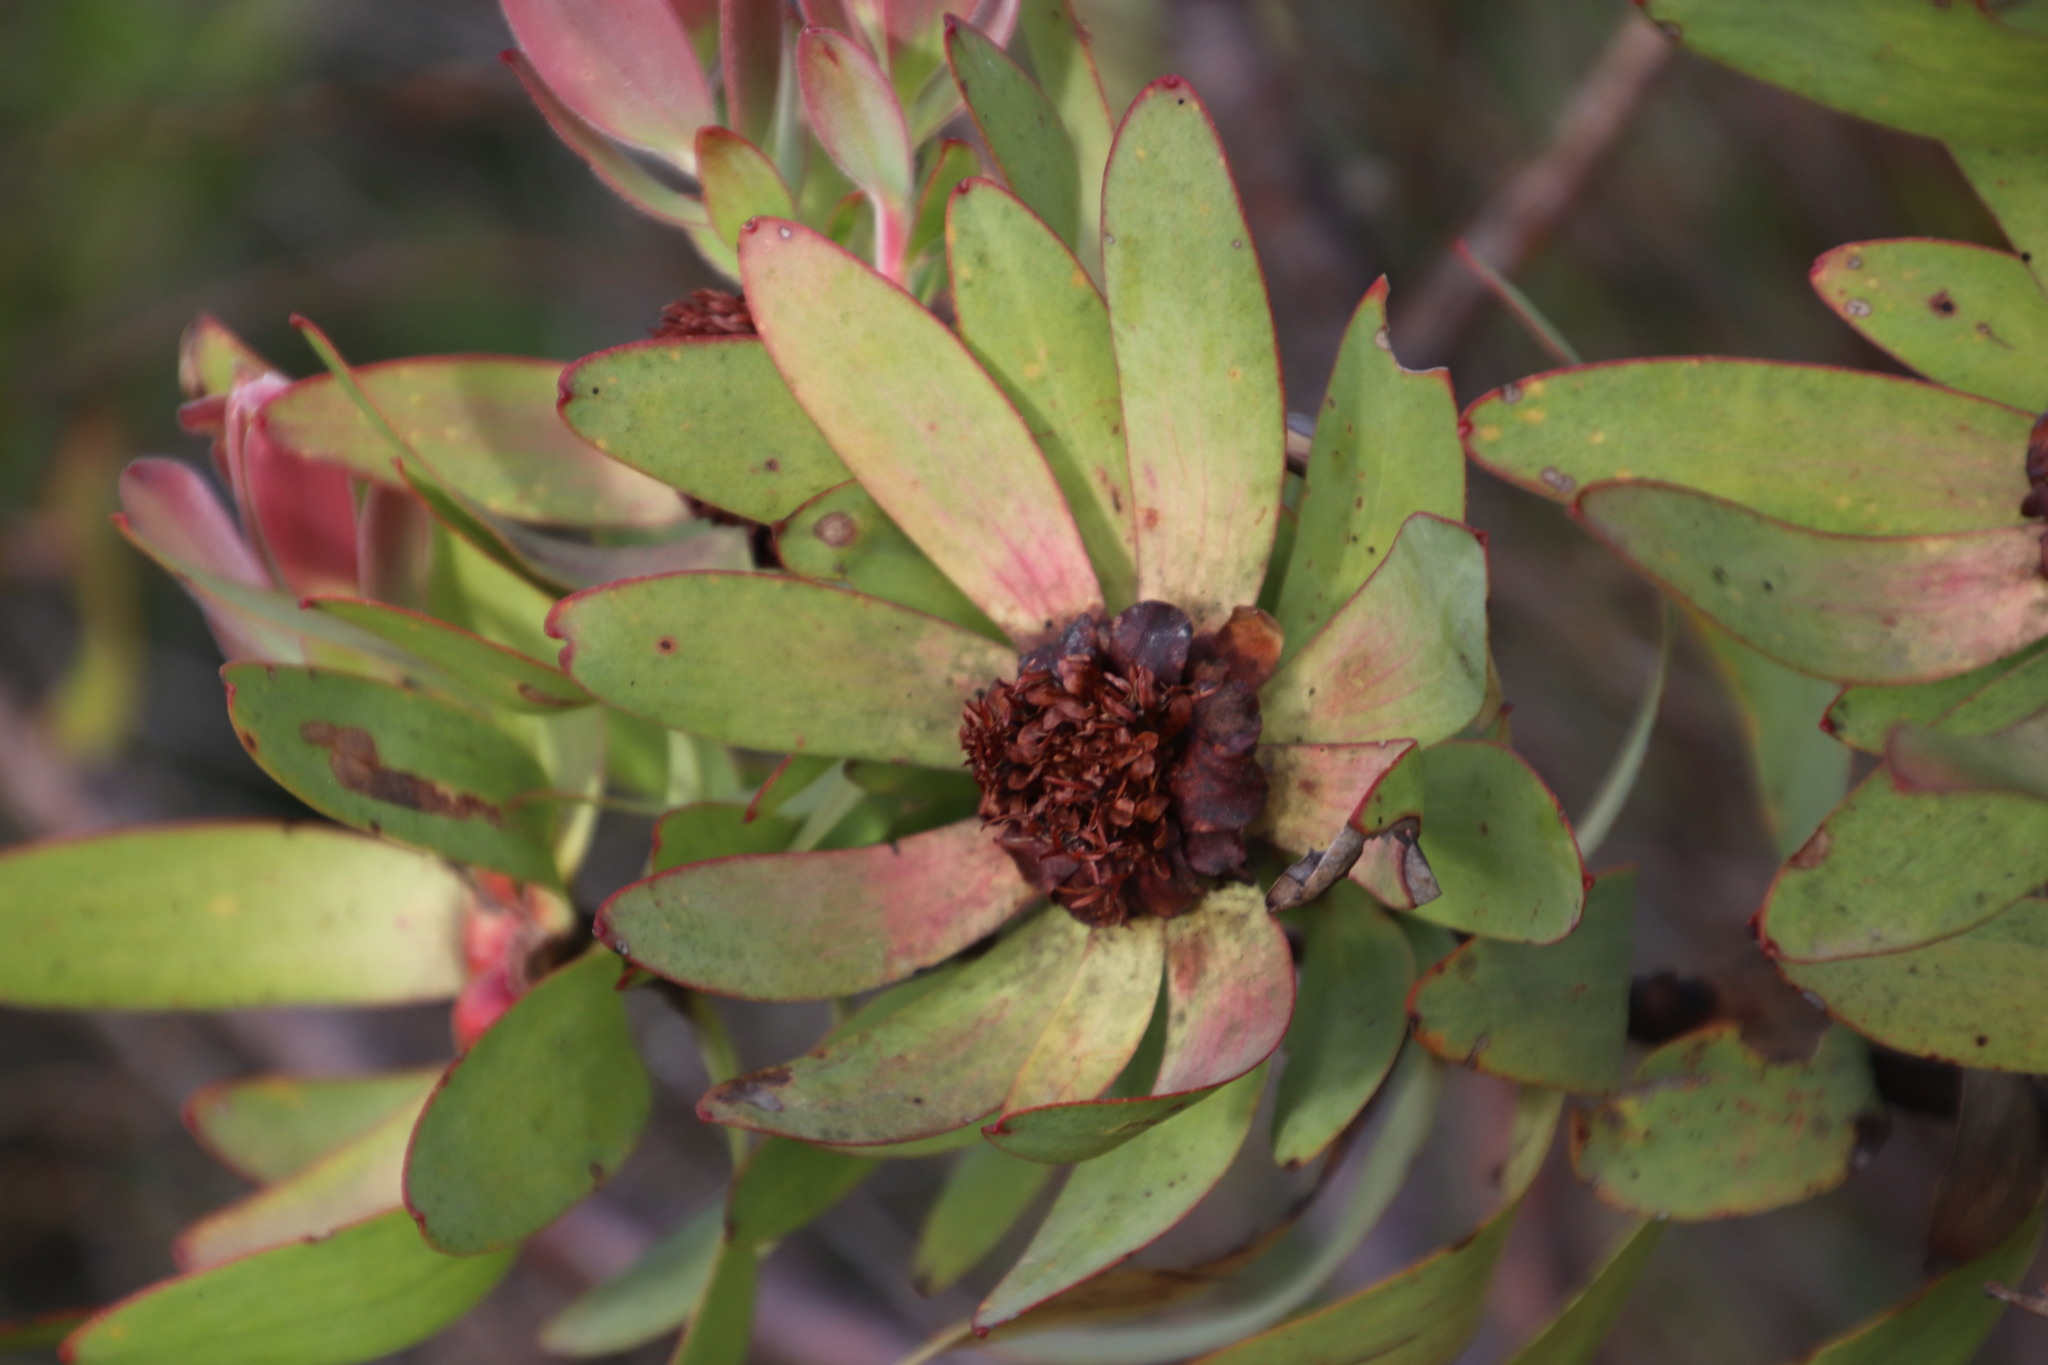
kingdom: Plantae
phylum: Tracheophyta
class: Magnoliopsida
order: Proteales
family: Proteaceae
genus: Leucadendron
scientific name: Leucadendron tinctum
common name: Spicy conebush
